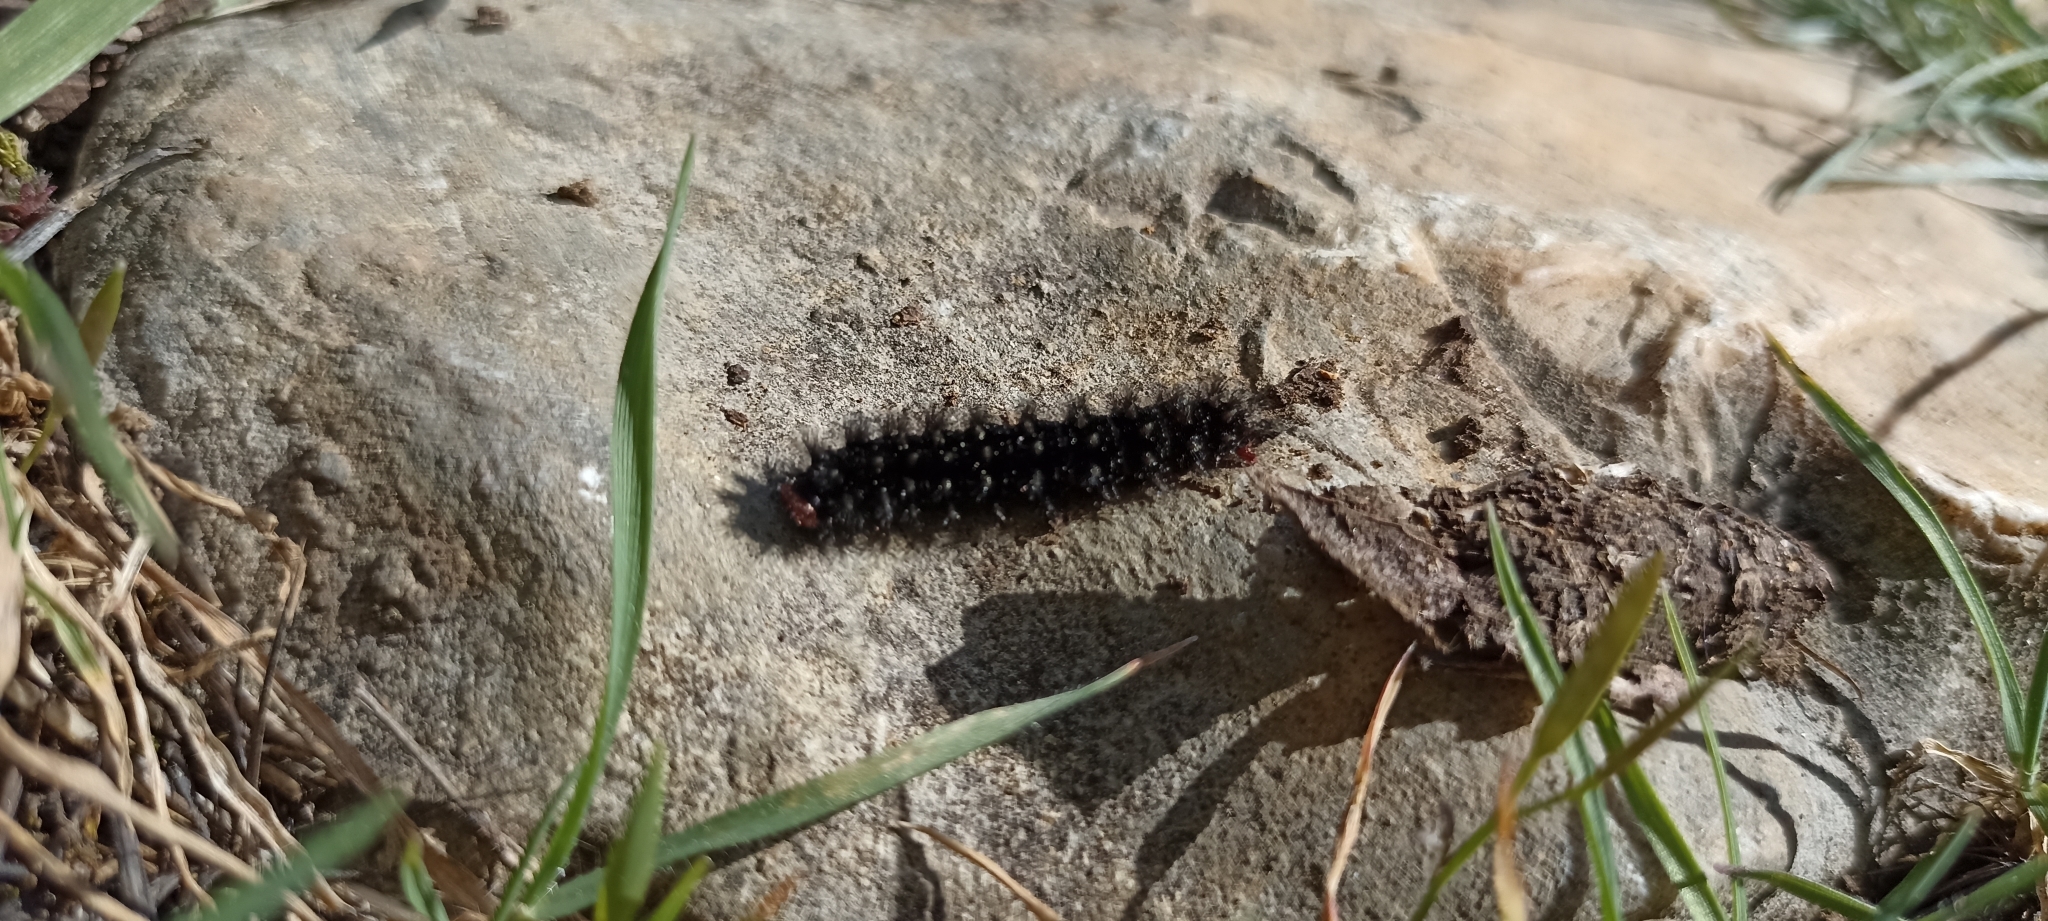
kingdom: Animalia
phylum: Arthropoda
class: Insecta
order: Lepidoptera
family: Nymphalidae
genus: Melitaea
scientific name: Melitaea cinxia
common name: Glanville fritillary
